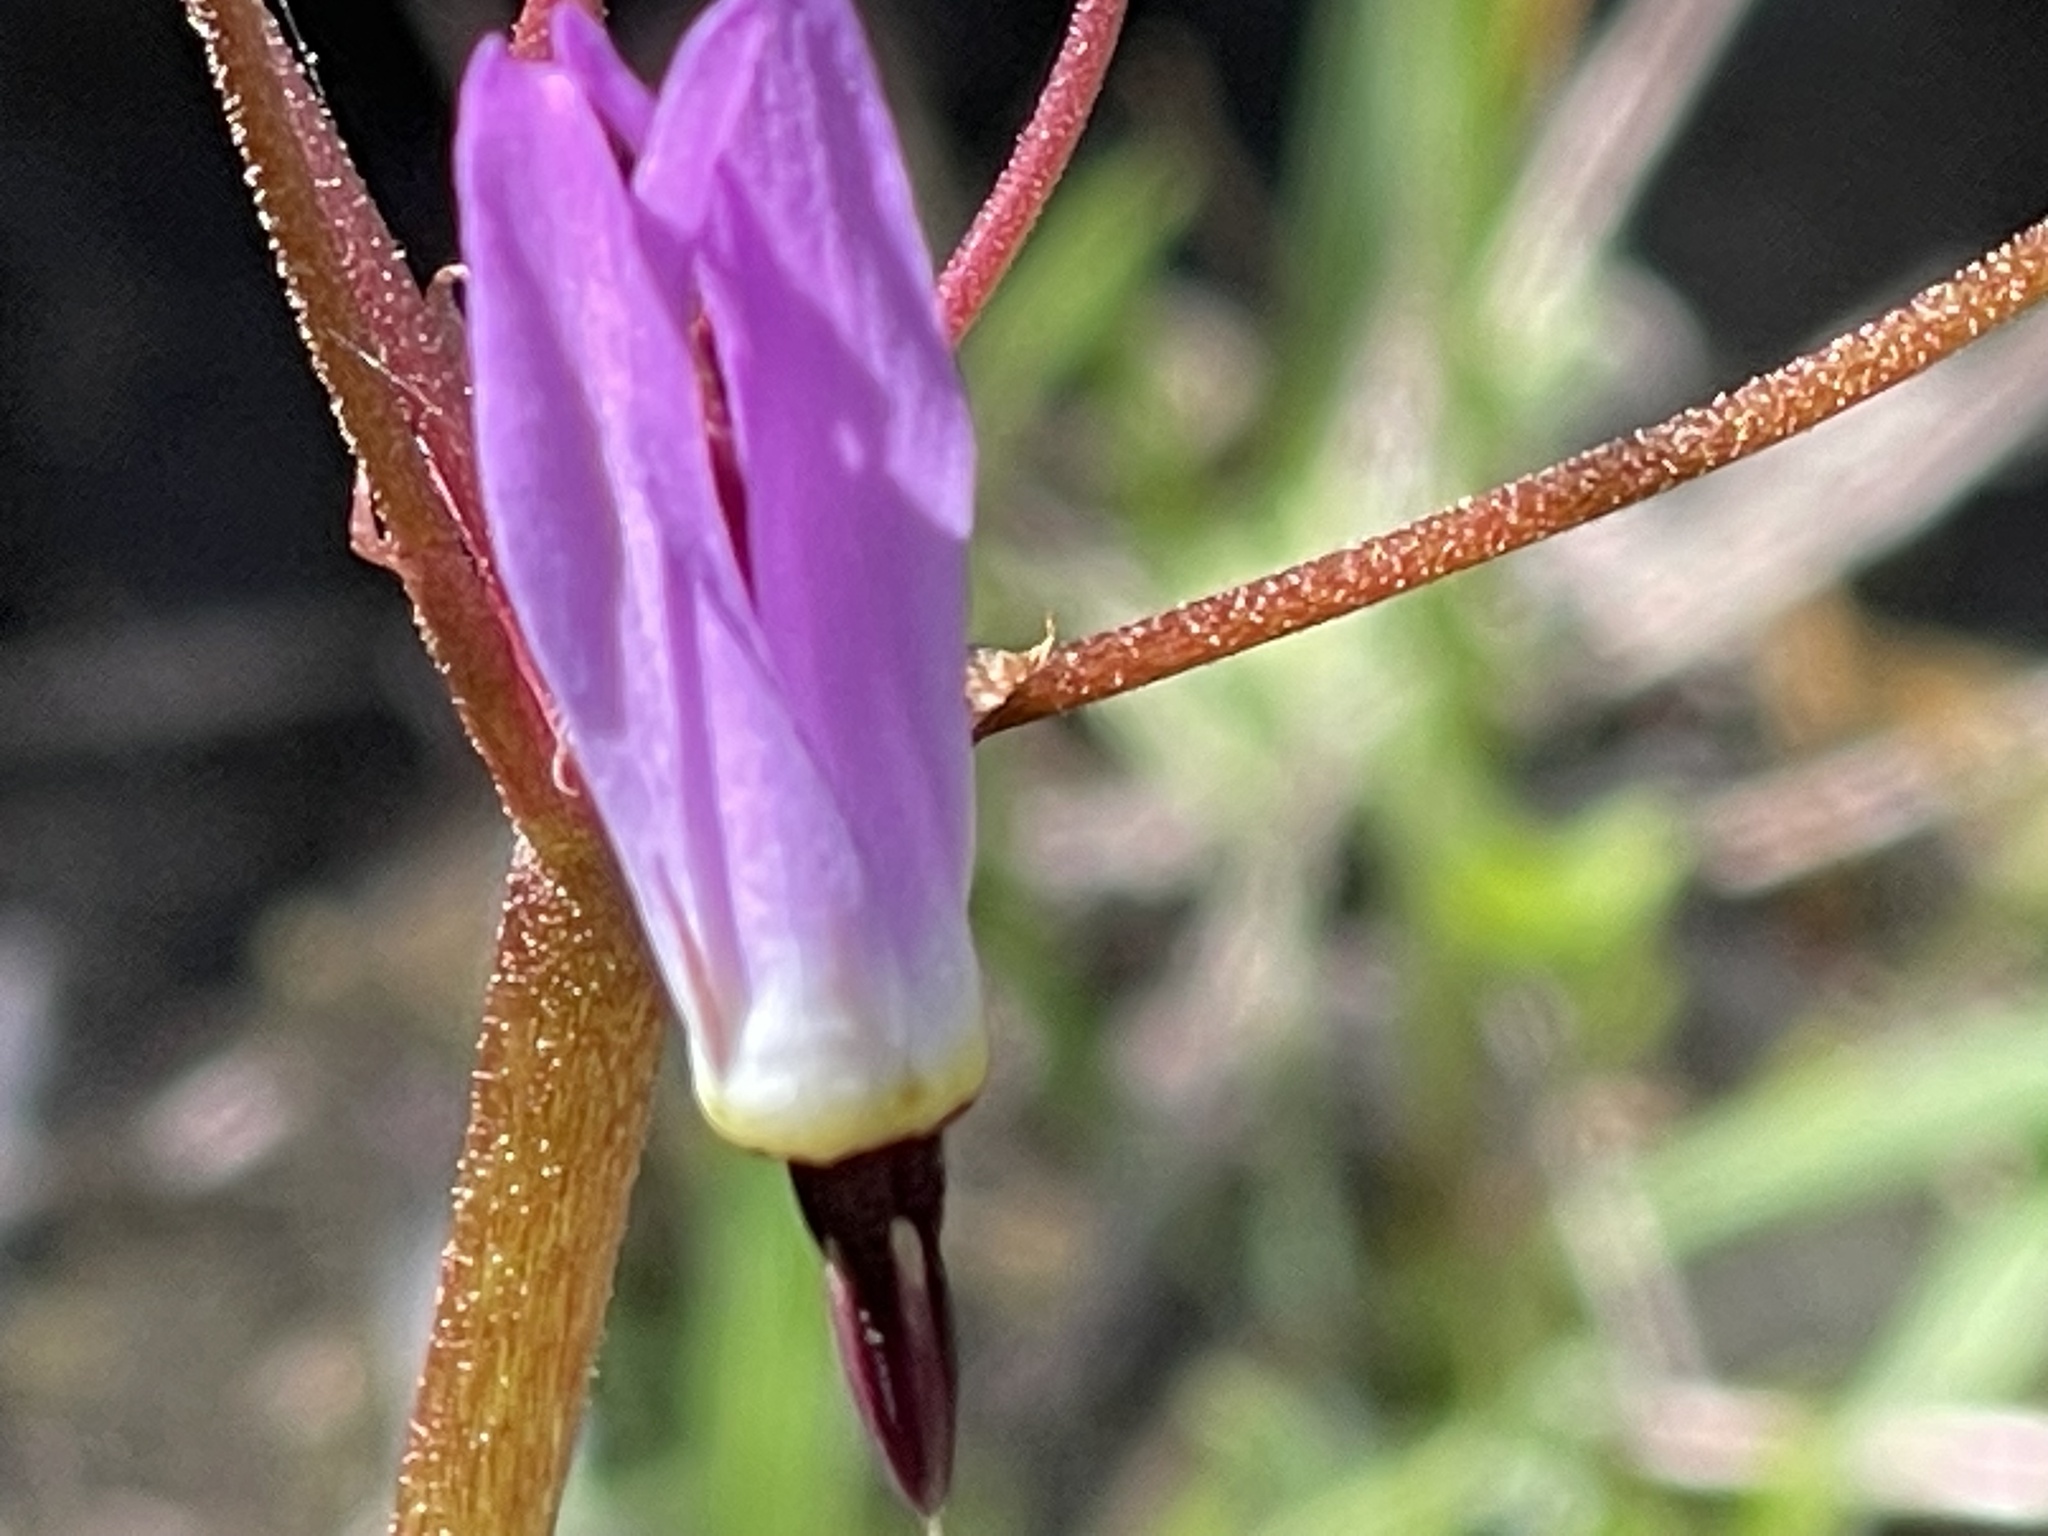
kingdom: Plantae
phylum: Tracheophyta
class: Magnoliopsida
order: Ericales
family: Primulaceae
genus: Dodecatheon
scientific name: Dodecatheon hendersonii
